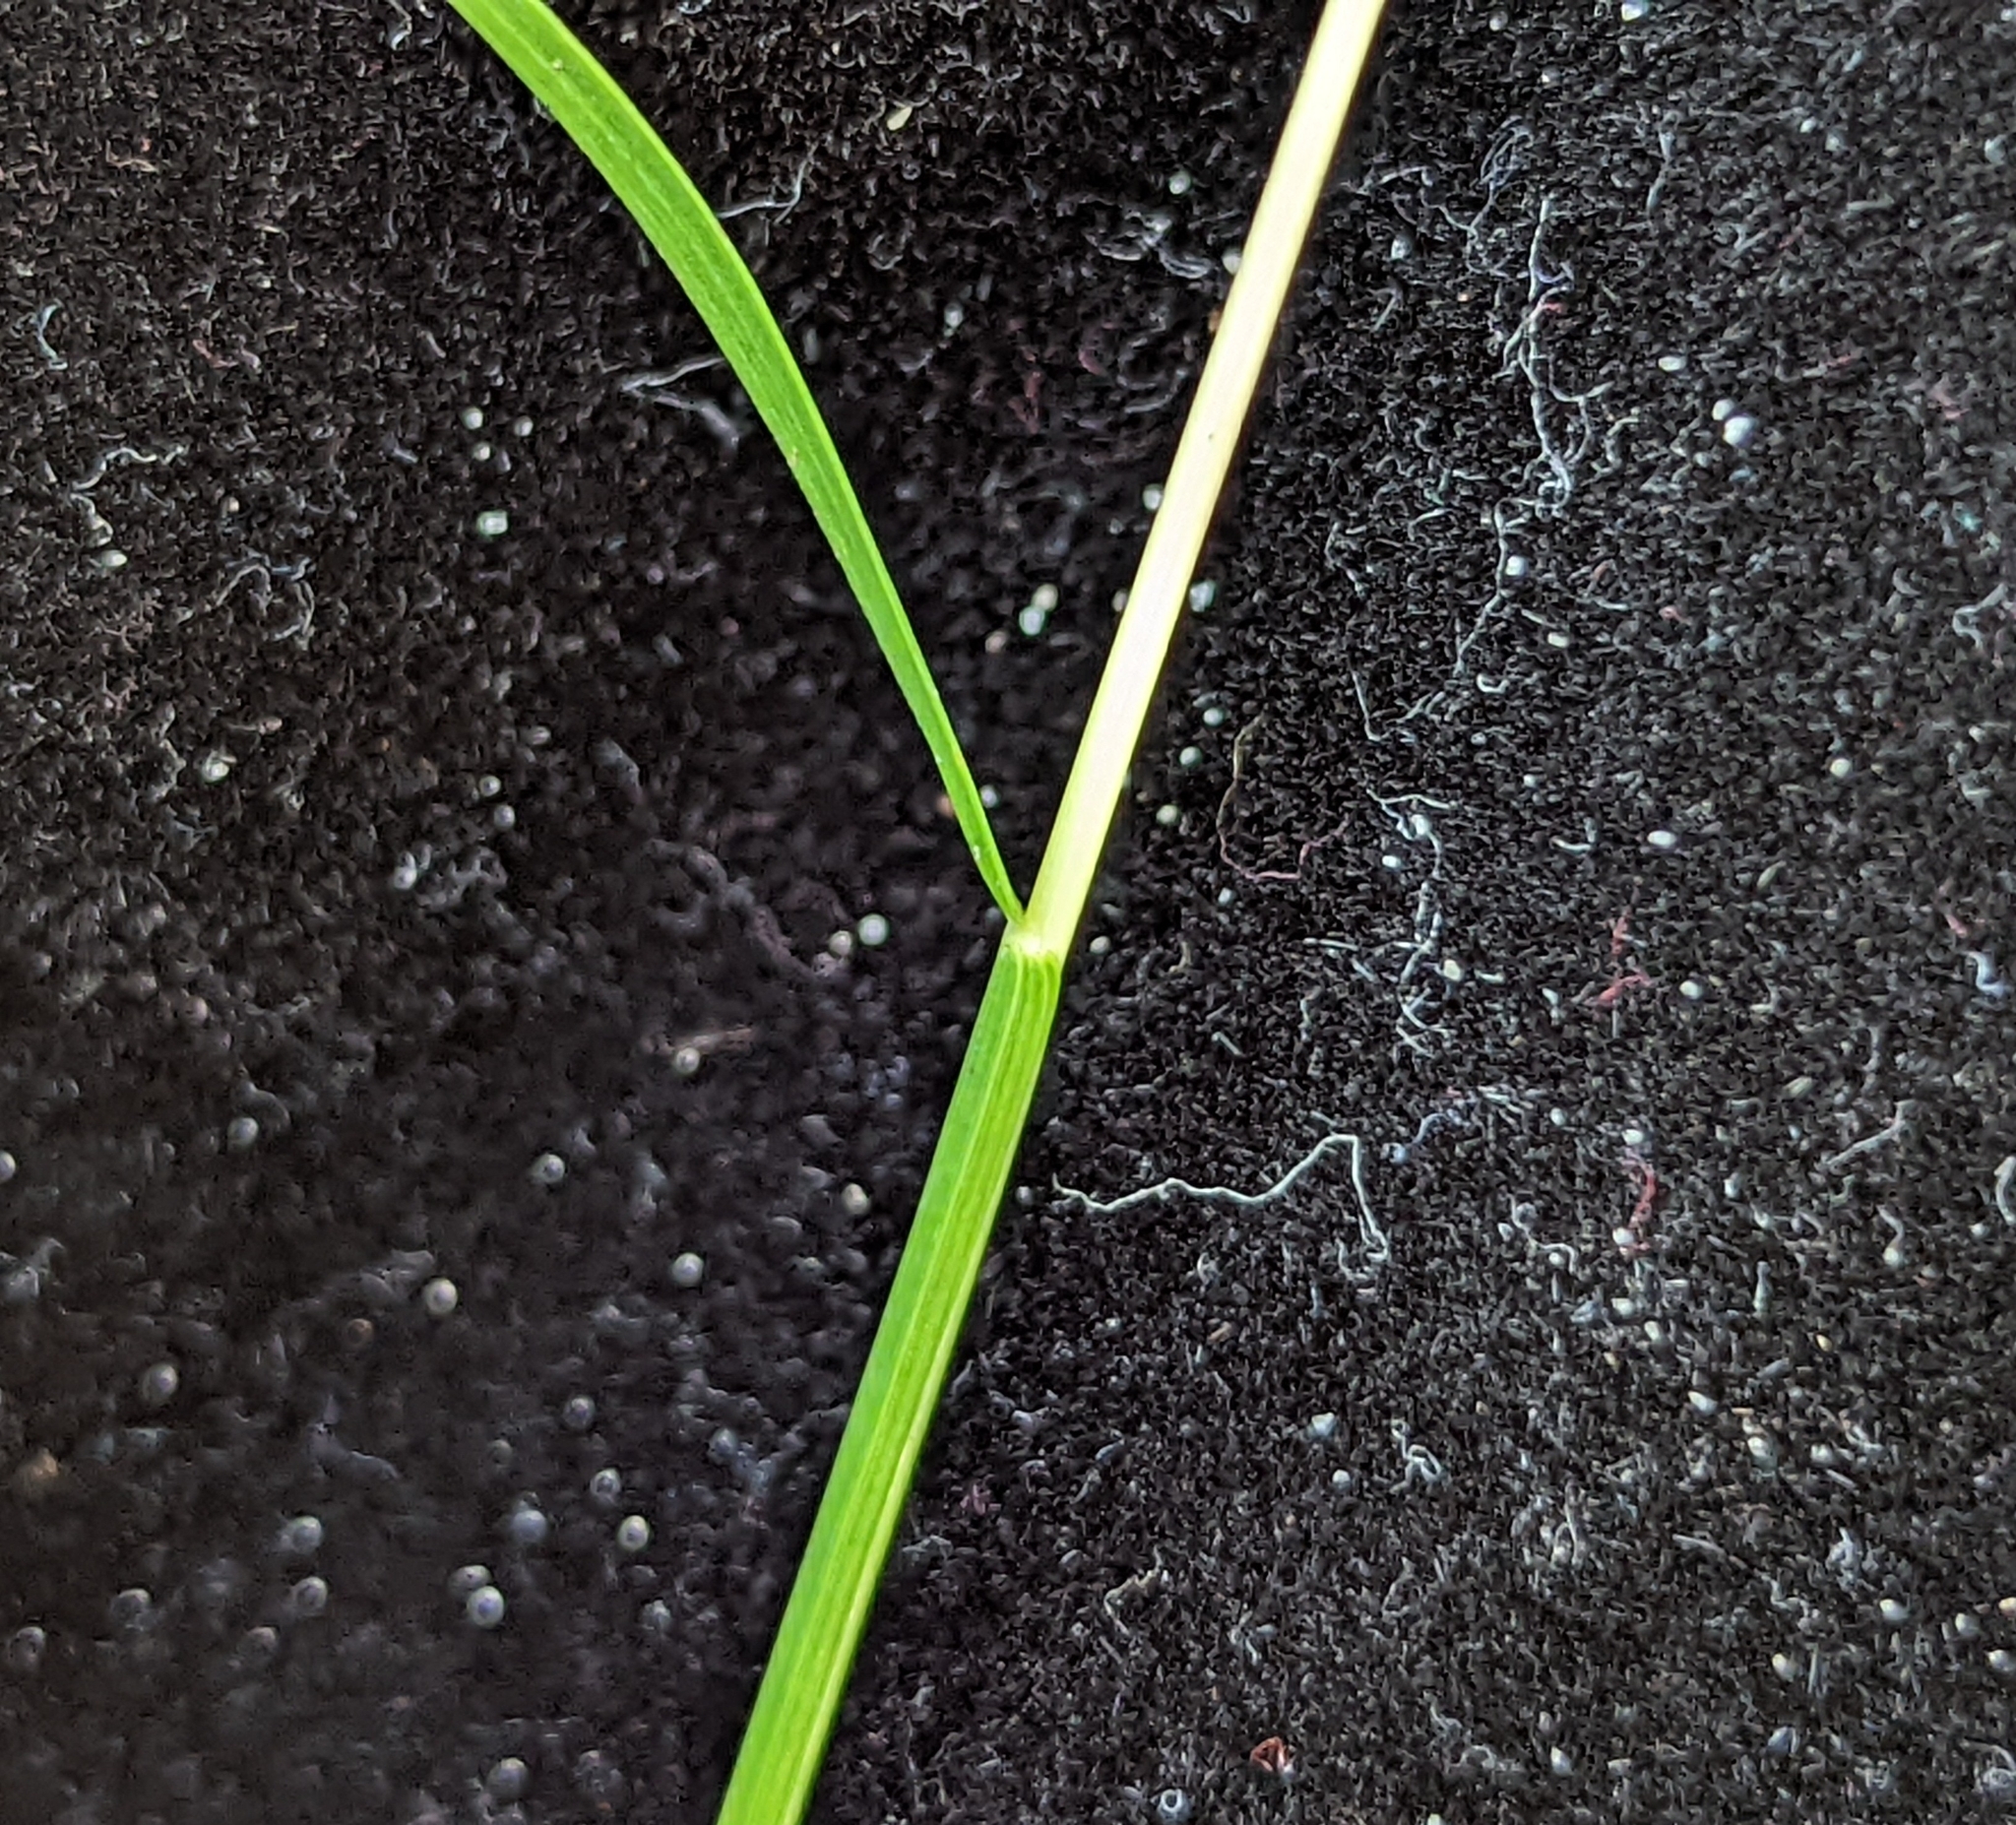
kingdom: Plantae
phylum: Tracheophyta
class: Liliopsida
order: Poales
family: Poaceae
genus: Sacciolepis
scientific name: Sacciolepis indica
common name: Glenwoodgrass
